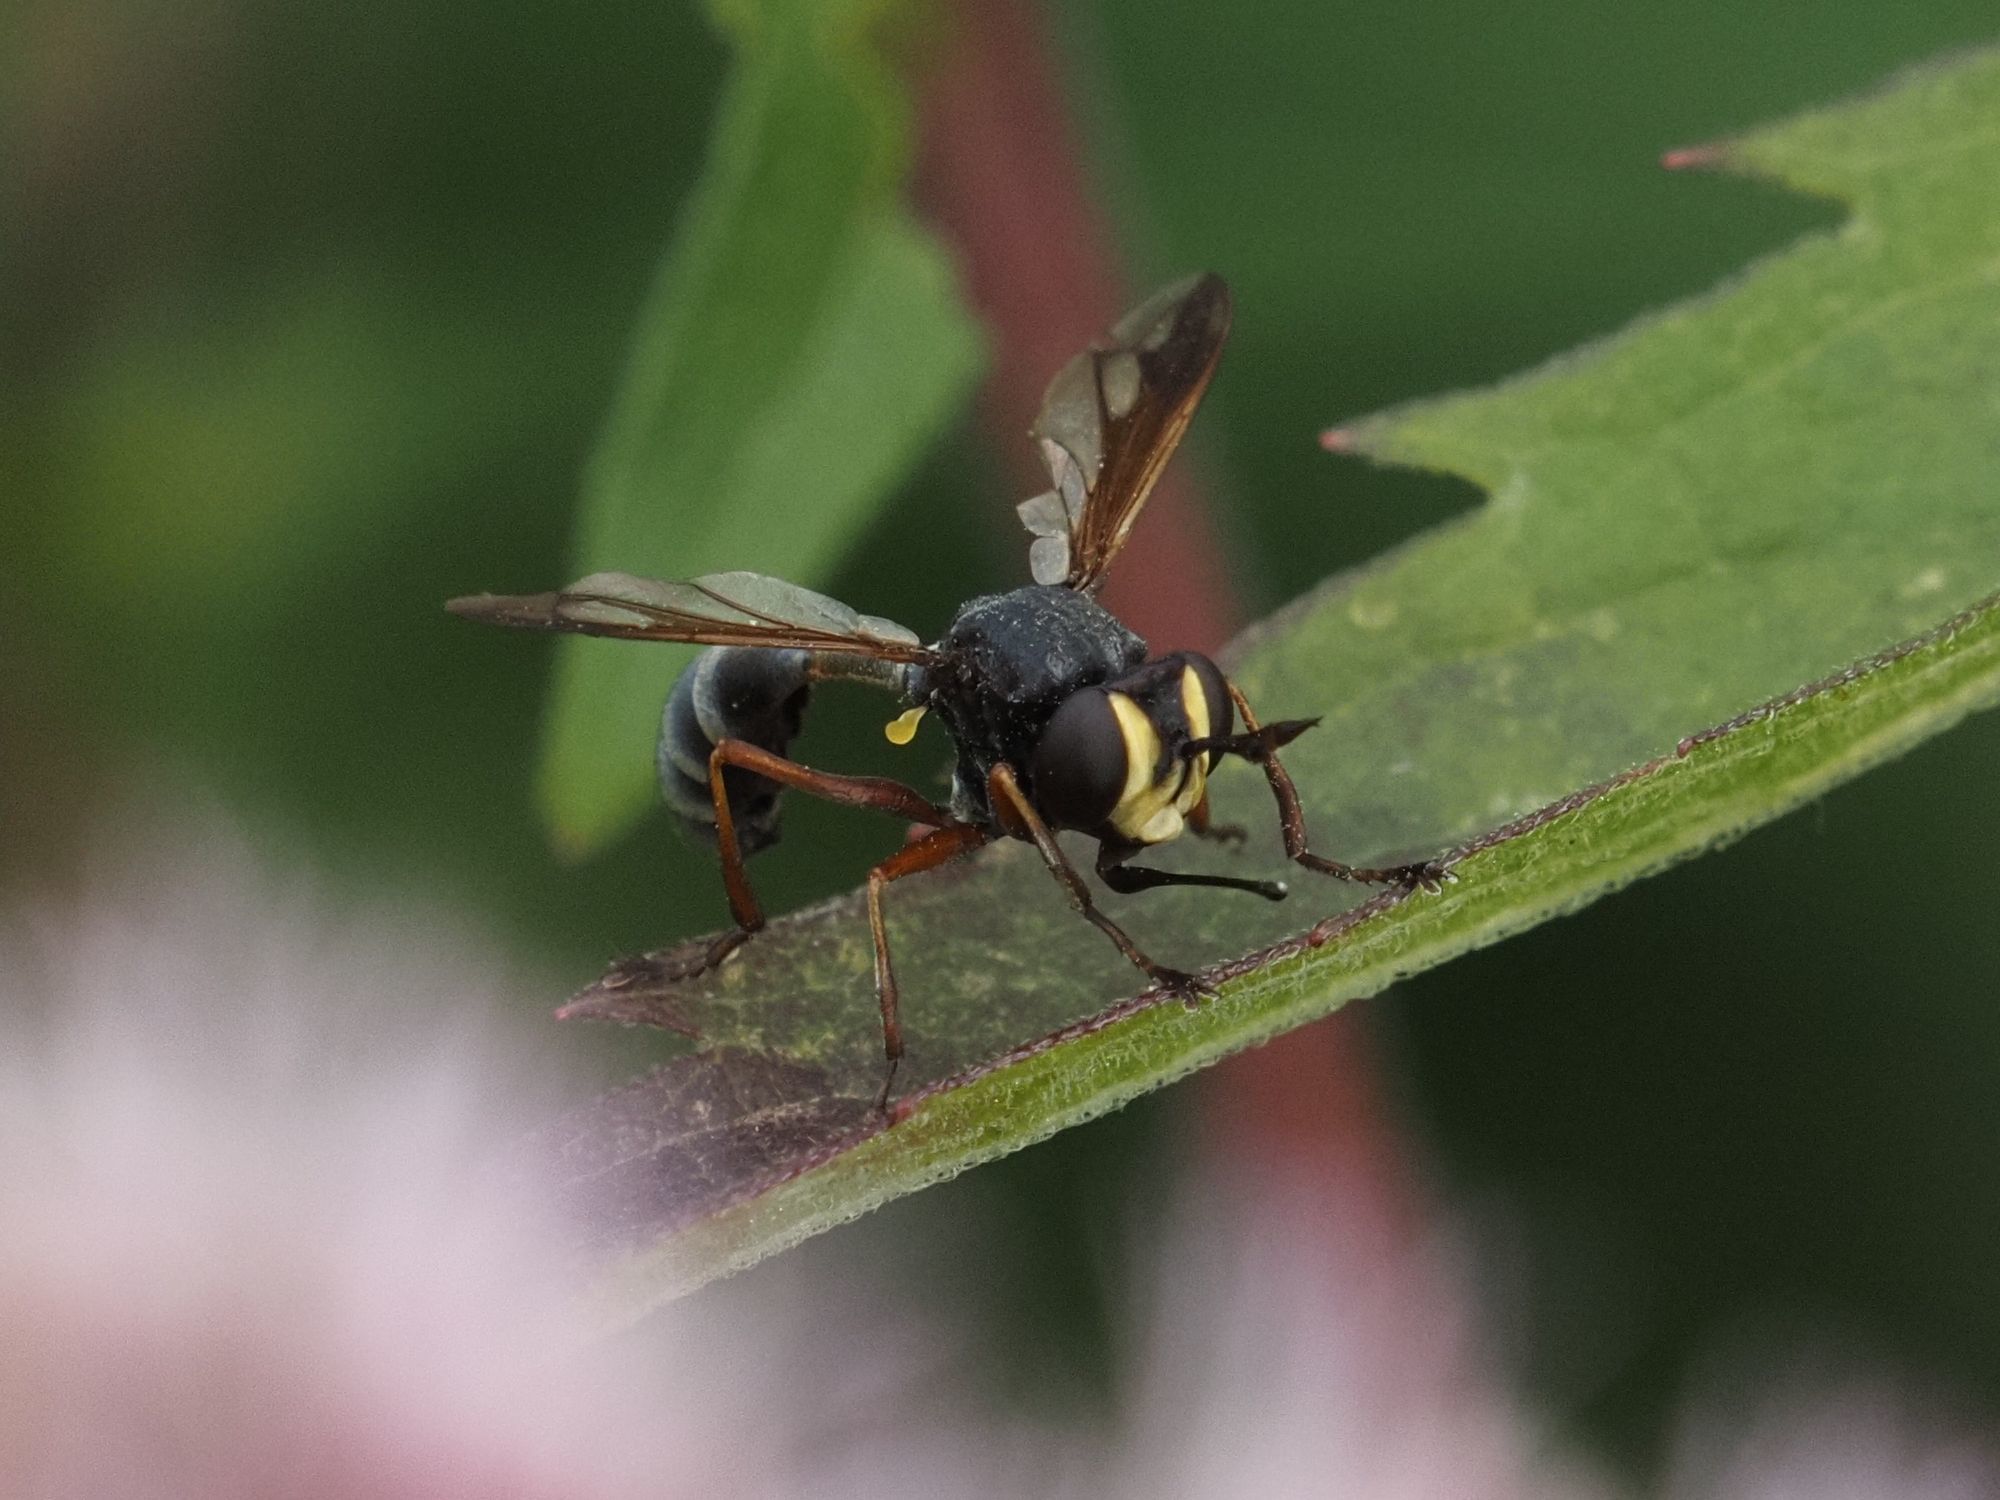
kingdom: Animalia
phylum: Arthropoda
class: Insecta
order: Diptera
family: Conopidae
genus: Physocephala
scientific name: Physocephala rufipes
